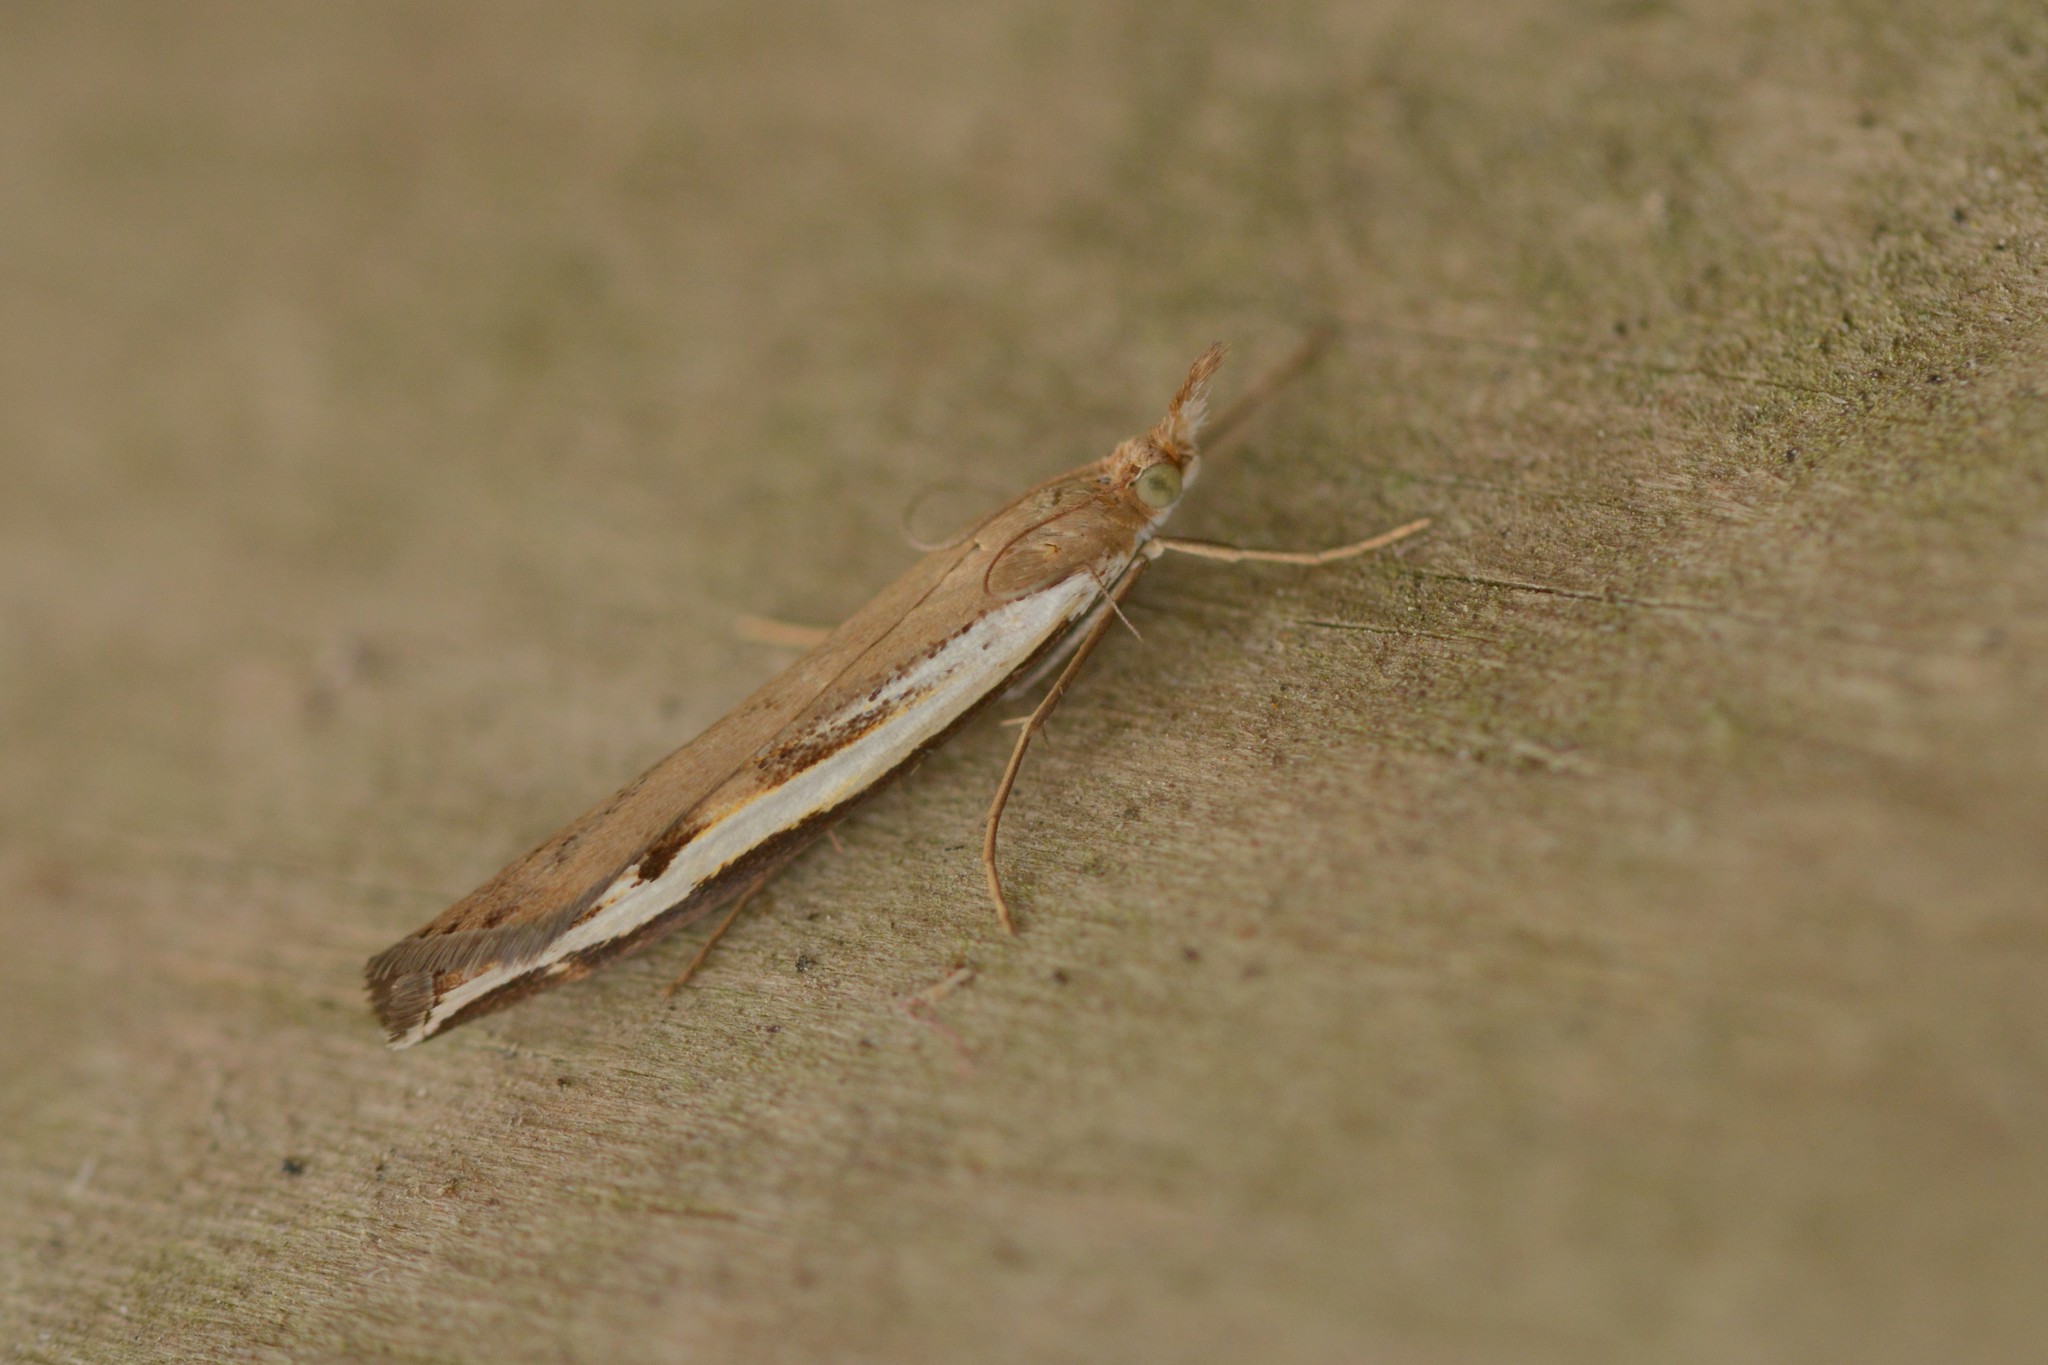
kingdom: Animalia
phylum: Arthropoda
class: Insecta
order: Lepidoptera
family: Crambidae
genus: Orocrambus
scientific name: Orocrambus flexuosellus
